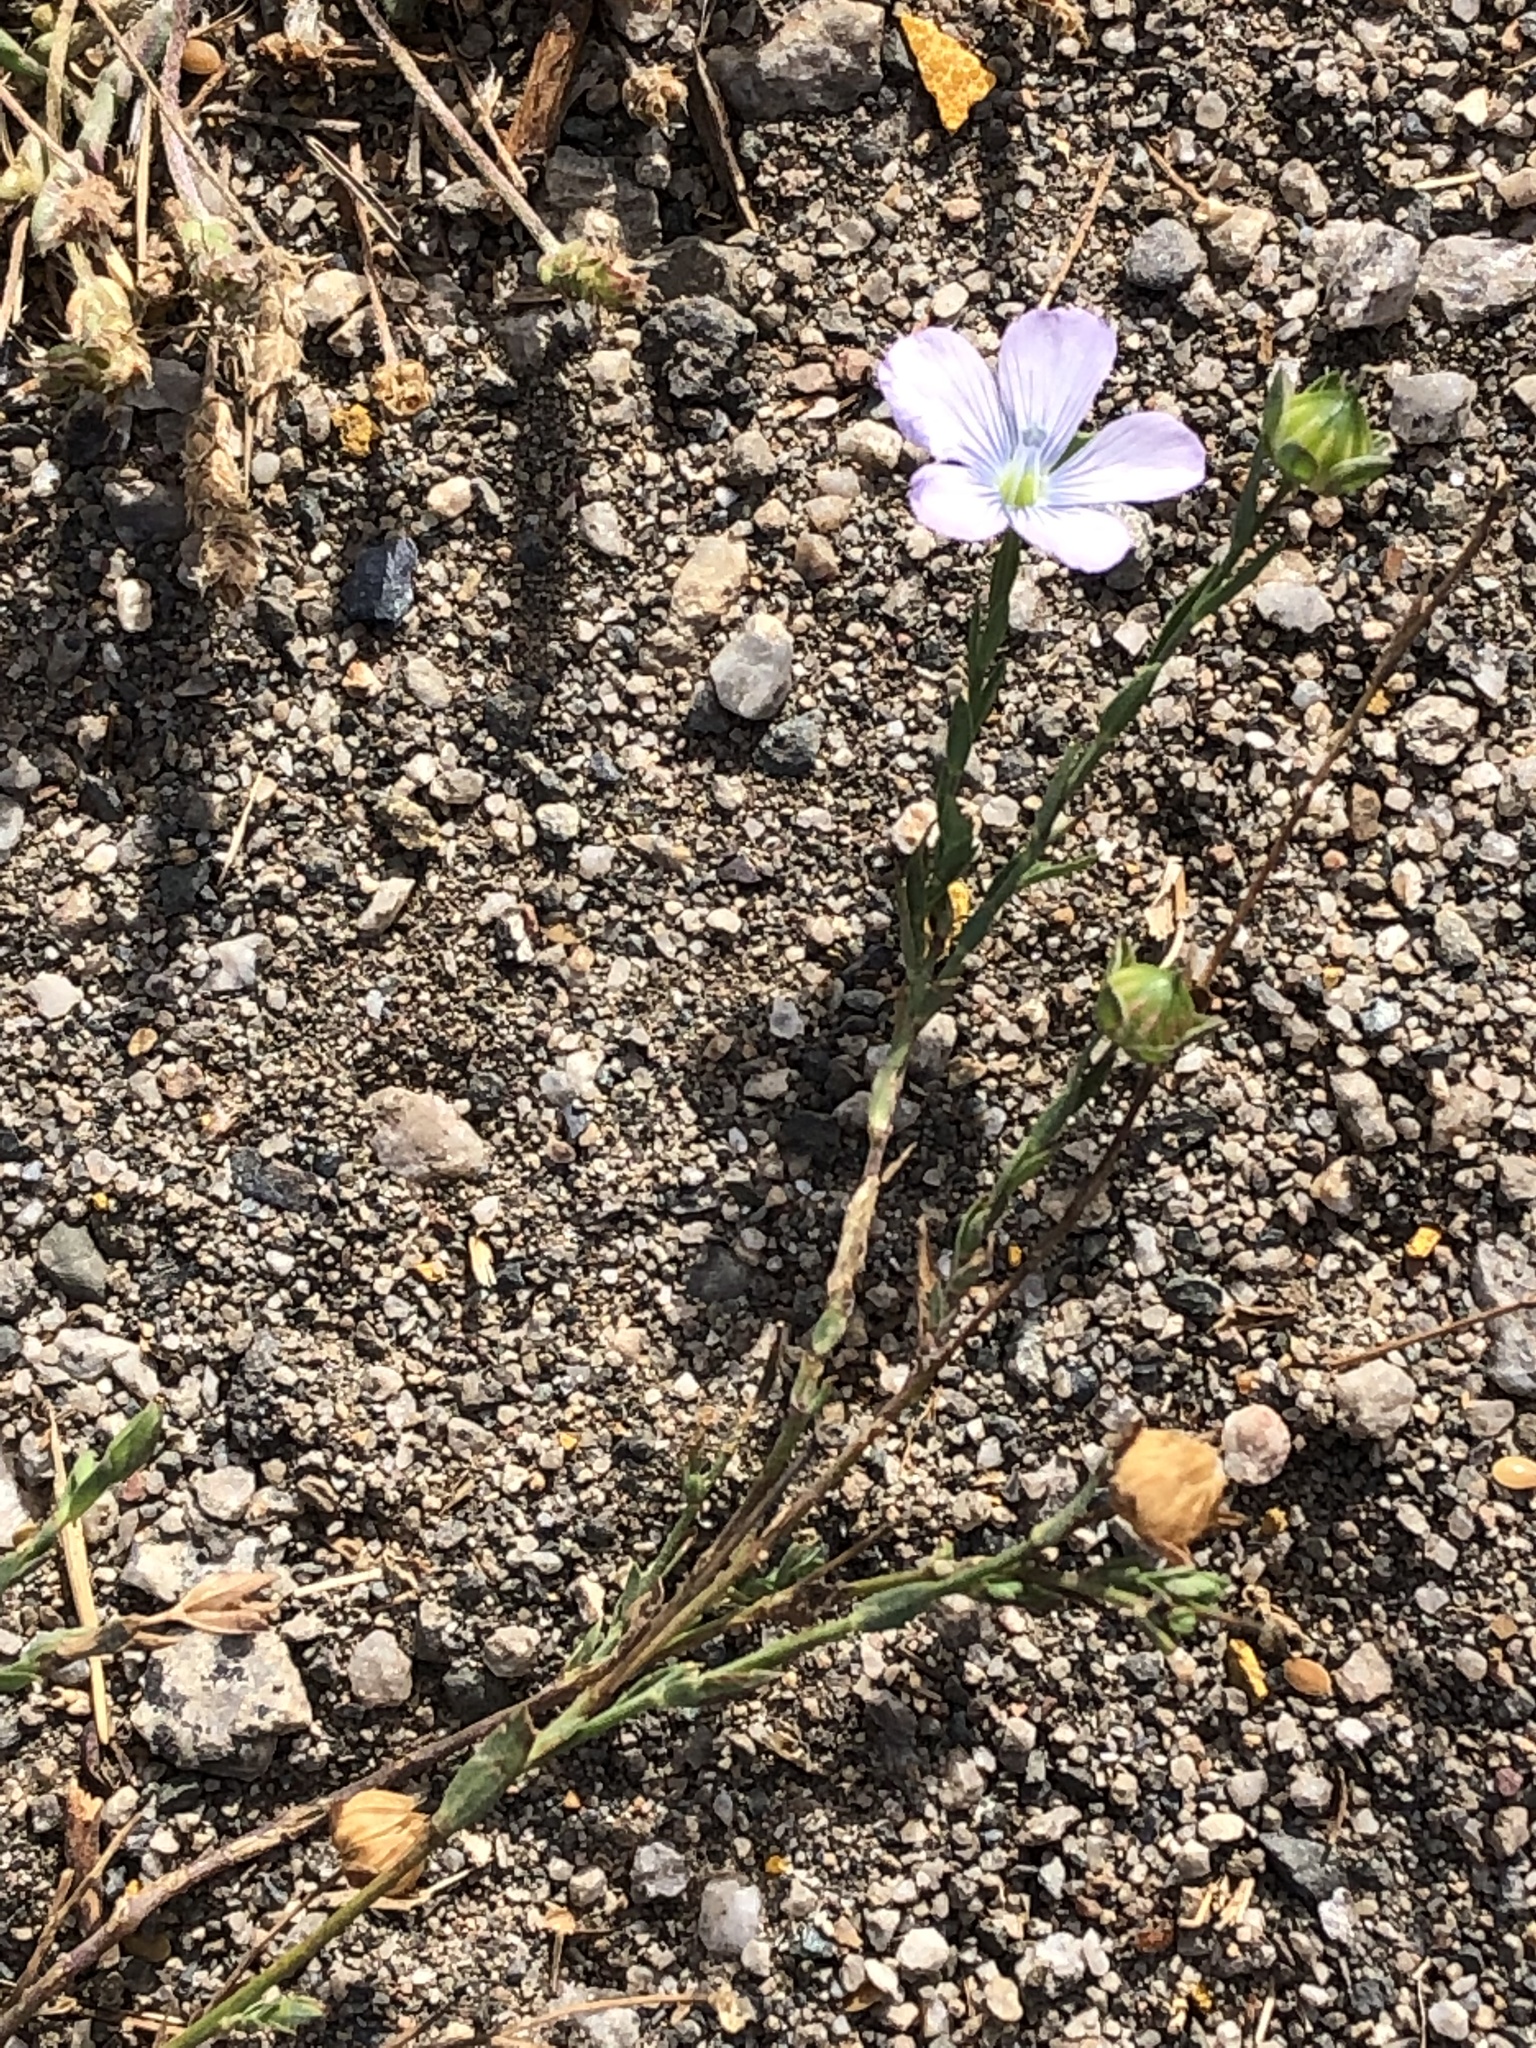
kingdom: Plantae
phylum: Tracheophyta
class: Magnoliopsida
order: Malpighiales
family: Linaceae
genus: Linum
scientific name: Linum bienne
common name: Pale flax
